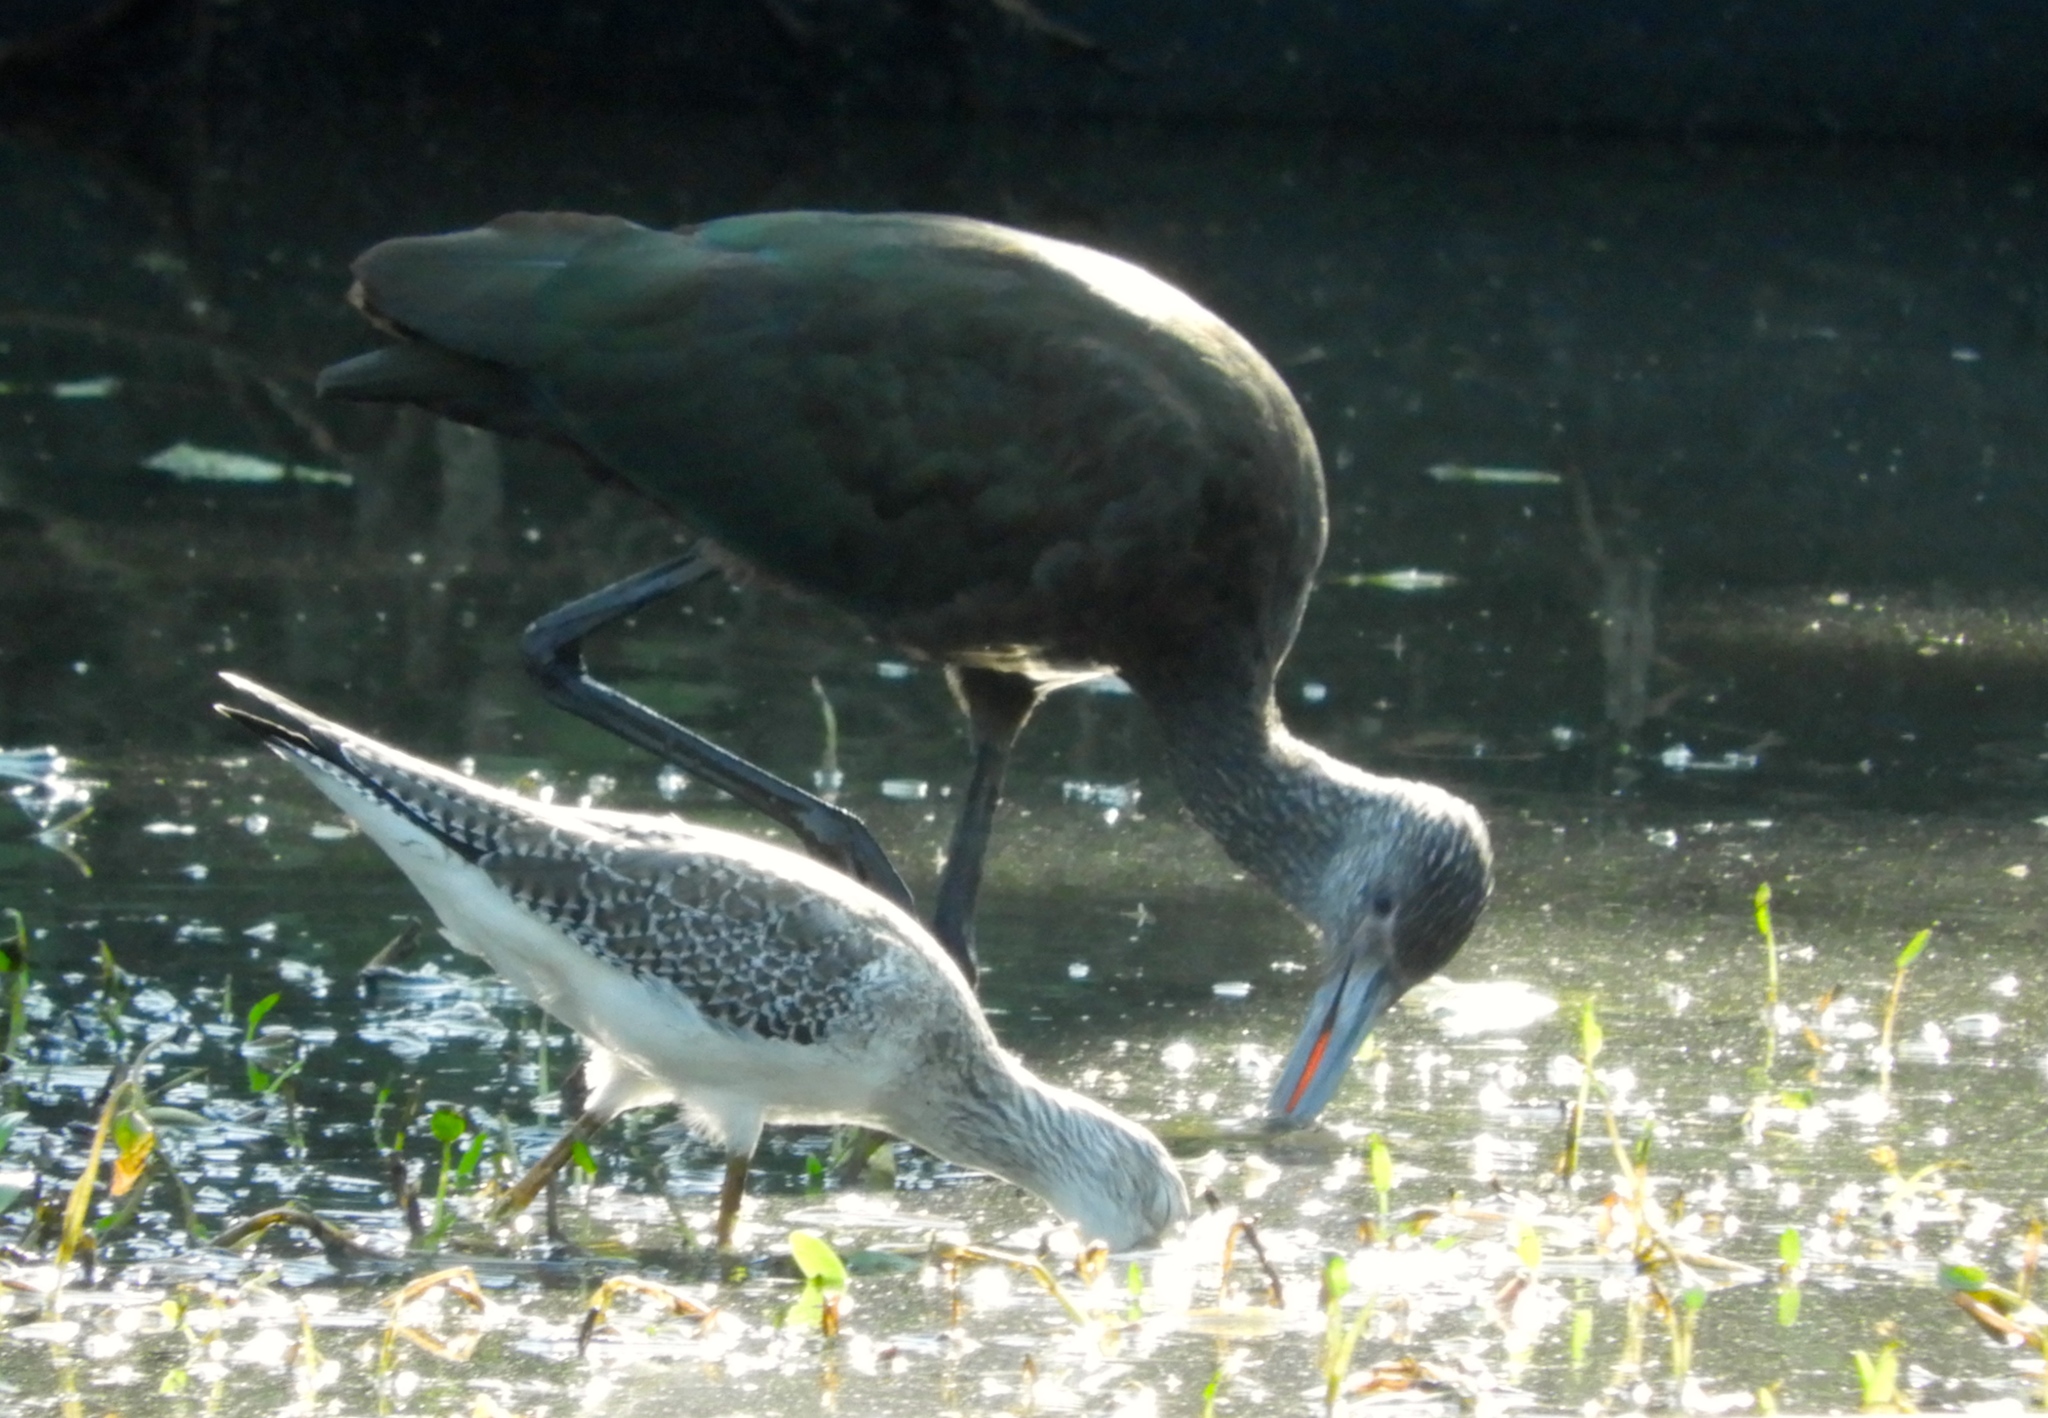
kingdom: Animalia
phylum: Chordata
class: Aves
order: Charadriiformes
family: Scolopacidae
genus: Tringa
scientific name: Tringa melanoleuca
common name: Greater yellowlegs
